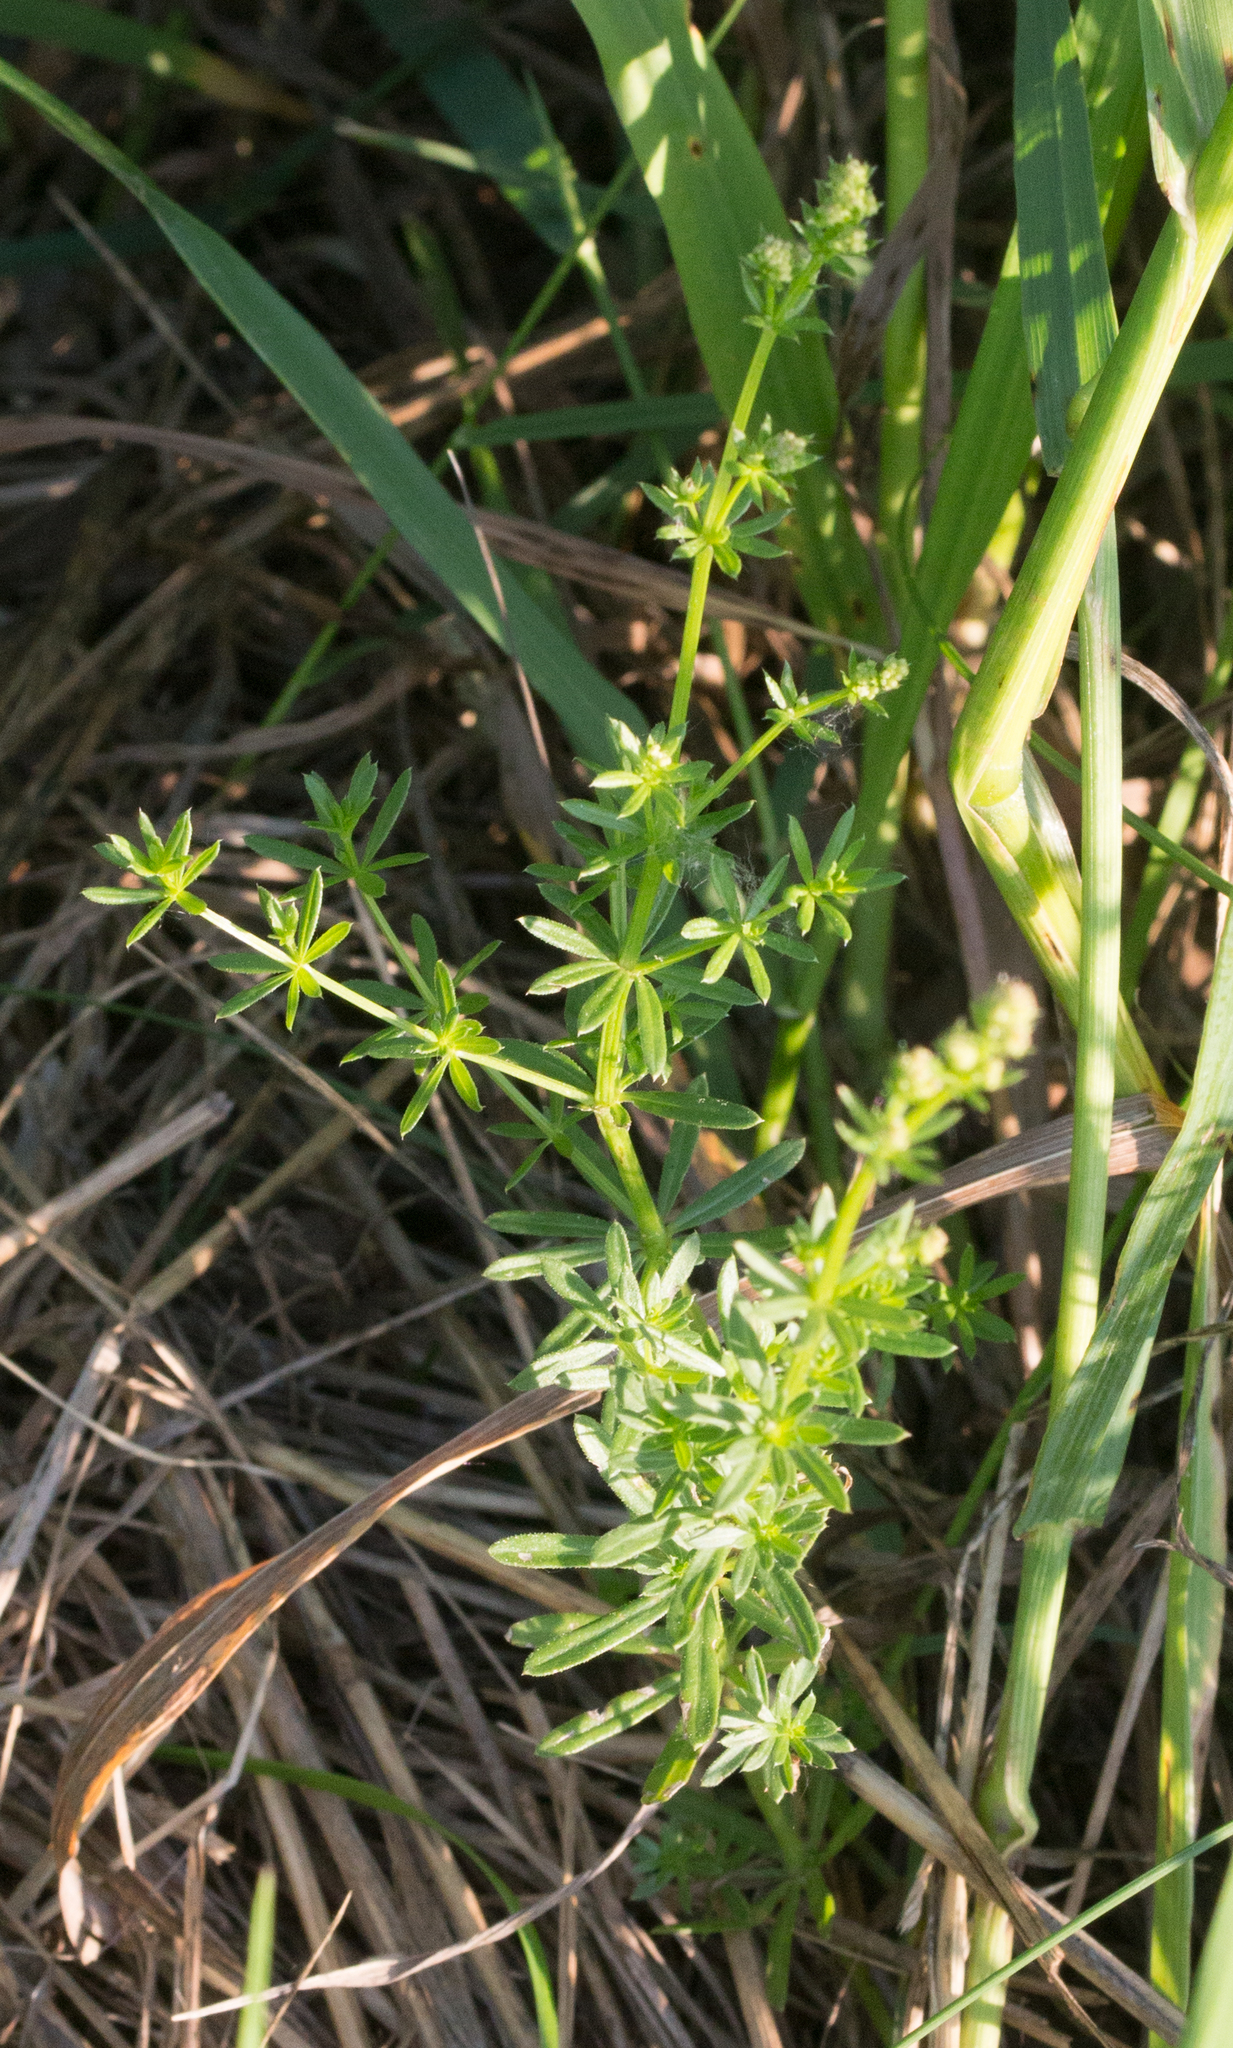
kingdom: Plantae
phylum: Tracheophyta
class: Magnoliopsida
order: Gentianales
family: Rubiaceae
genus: Galium
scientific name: Galium mollugo
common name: Hedge bedstraw
